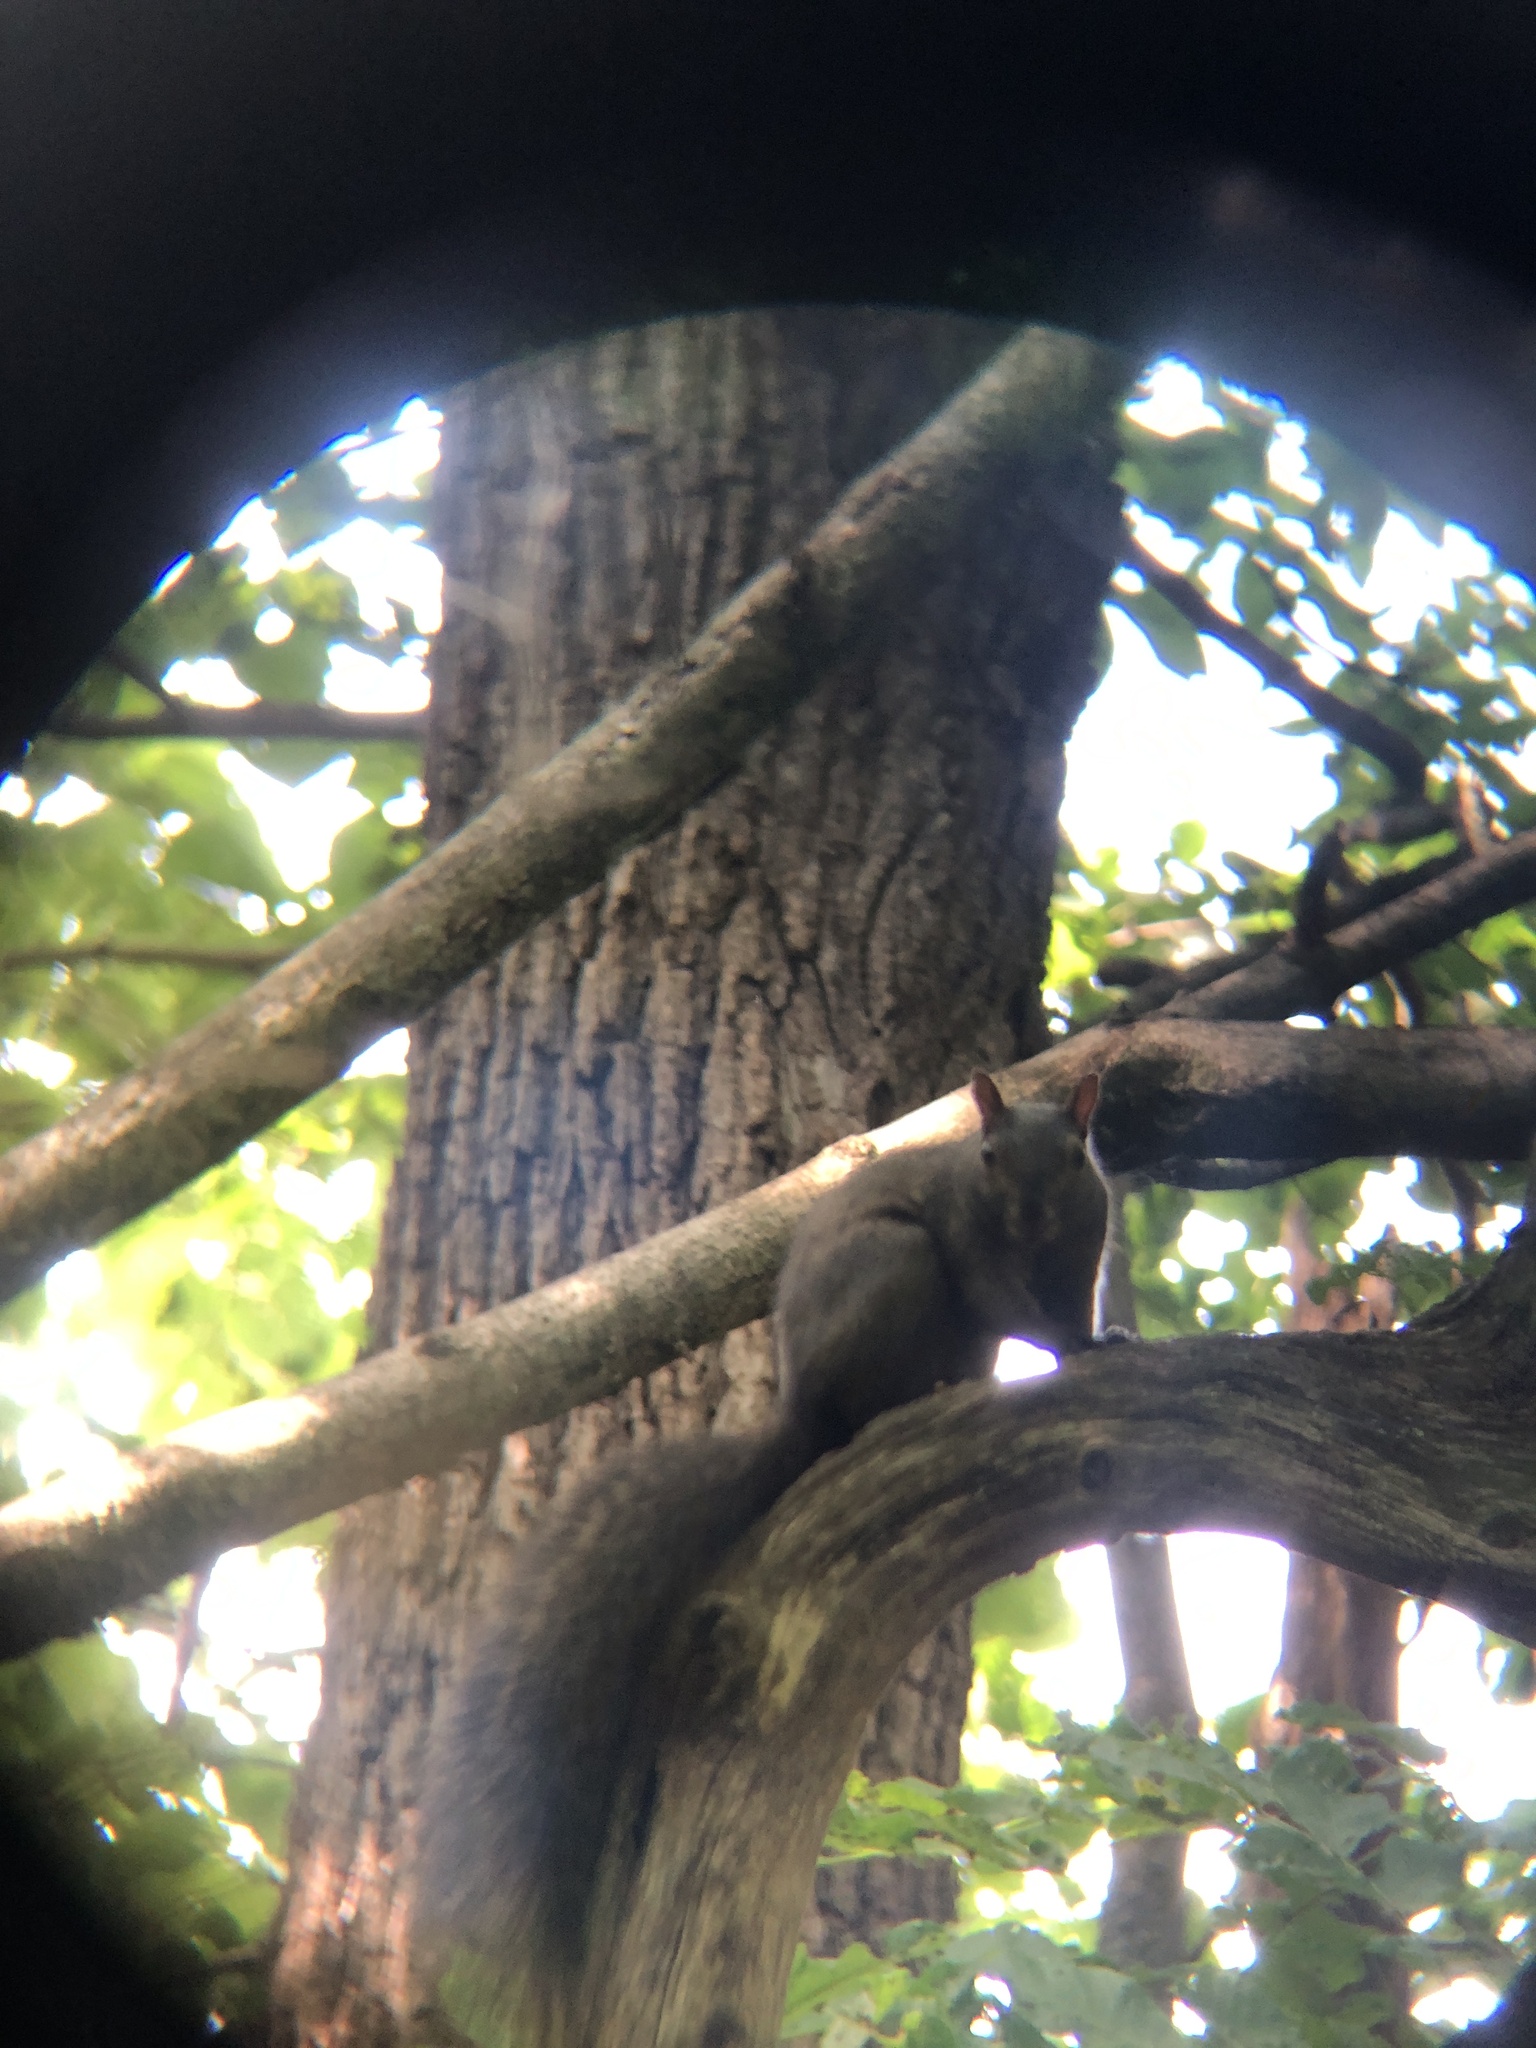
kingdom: Animalia
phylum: Chordata
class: Mammalia
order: Rodentia
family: Sciuridae
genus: Sciurus
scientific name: Sciurus carolinensis
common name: Eastern gray squirrel
